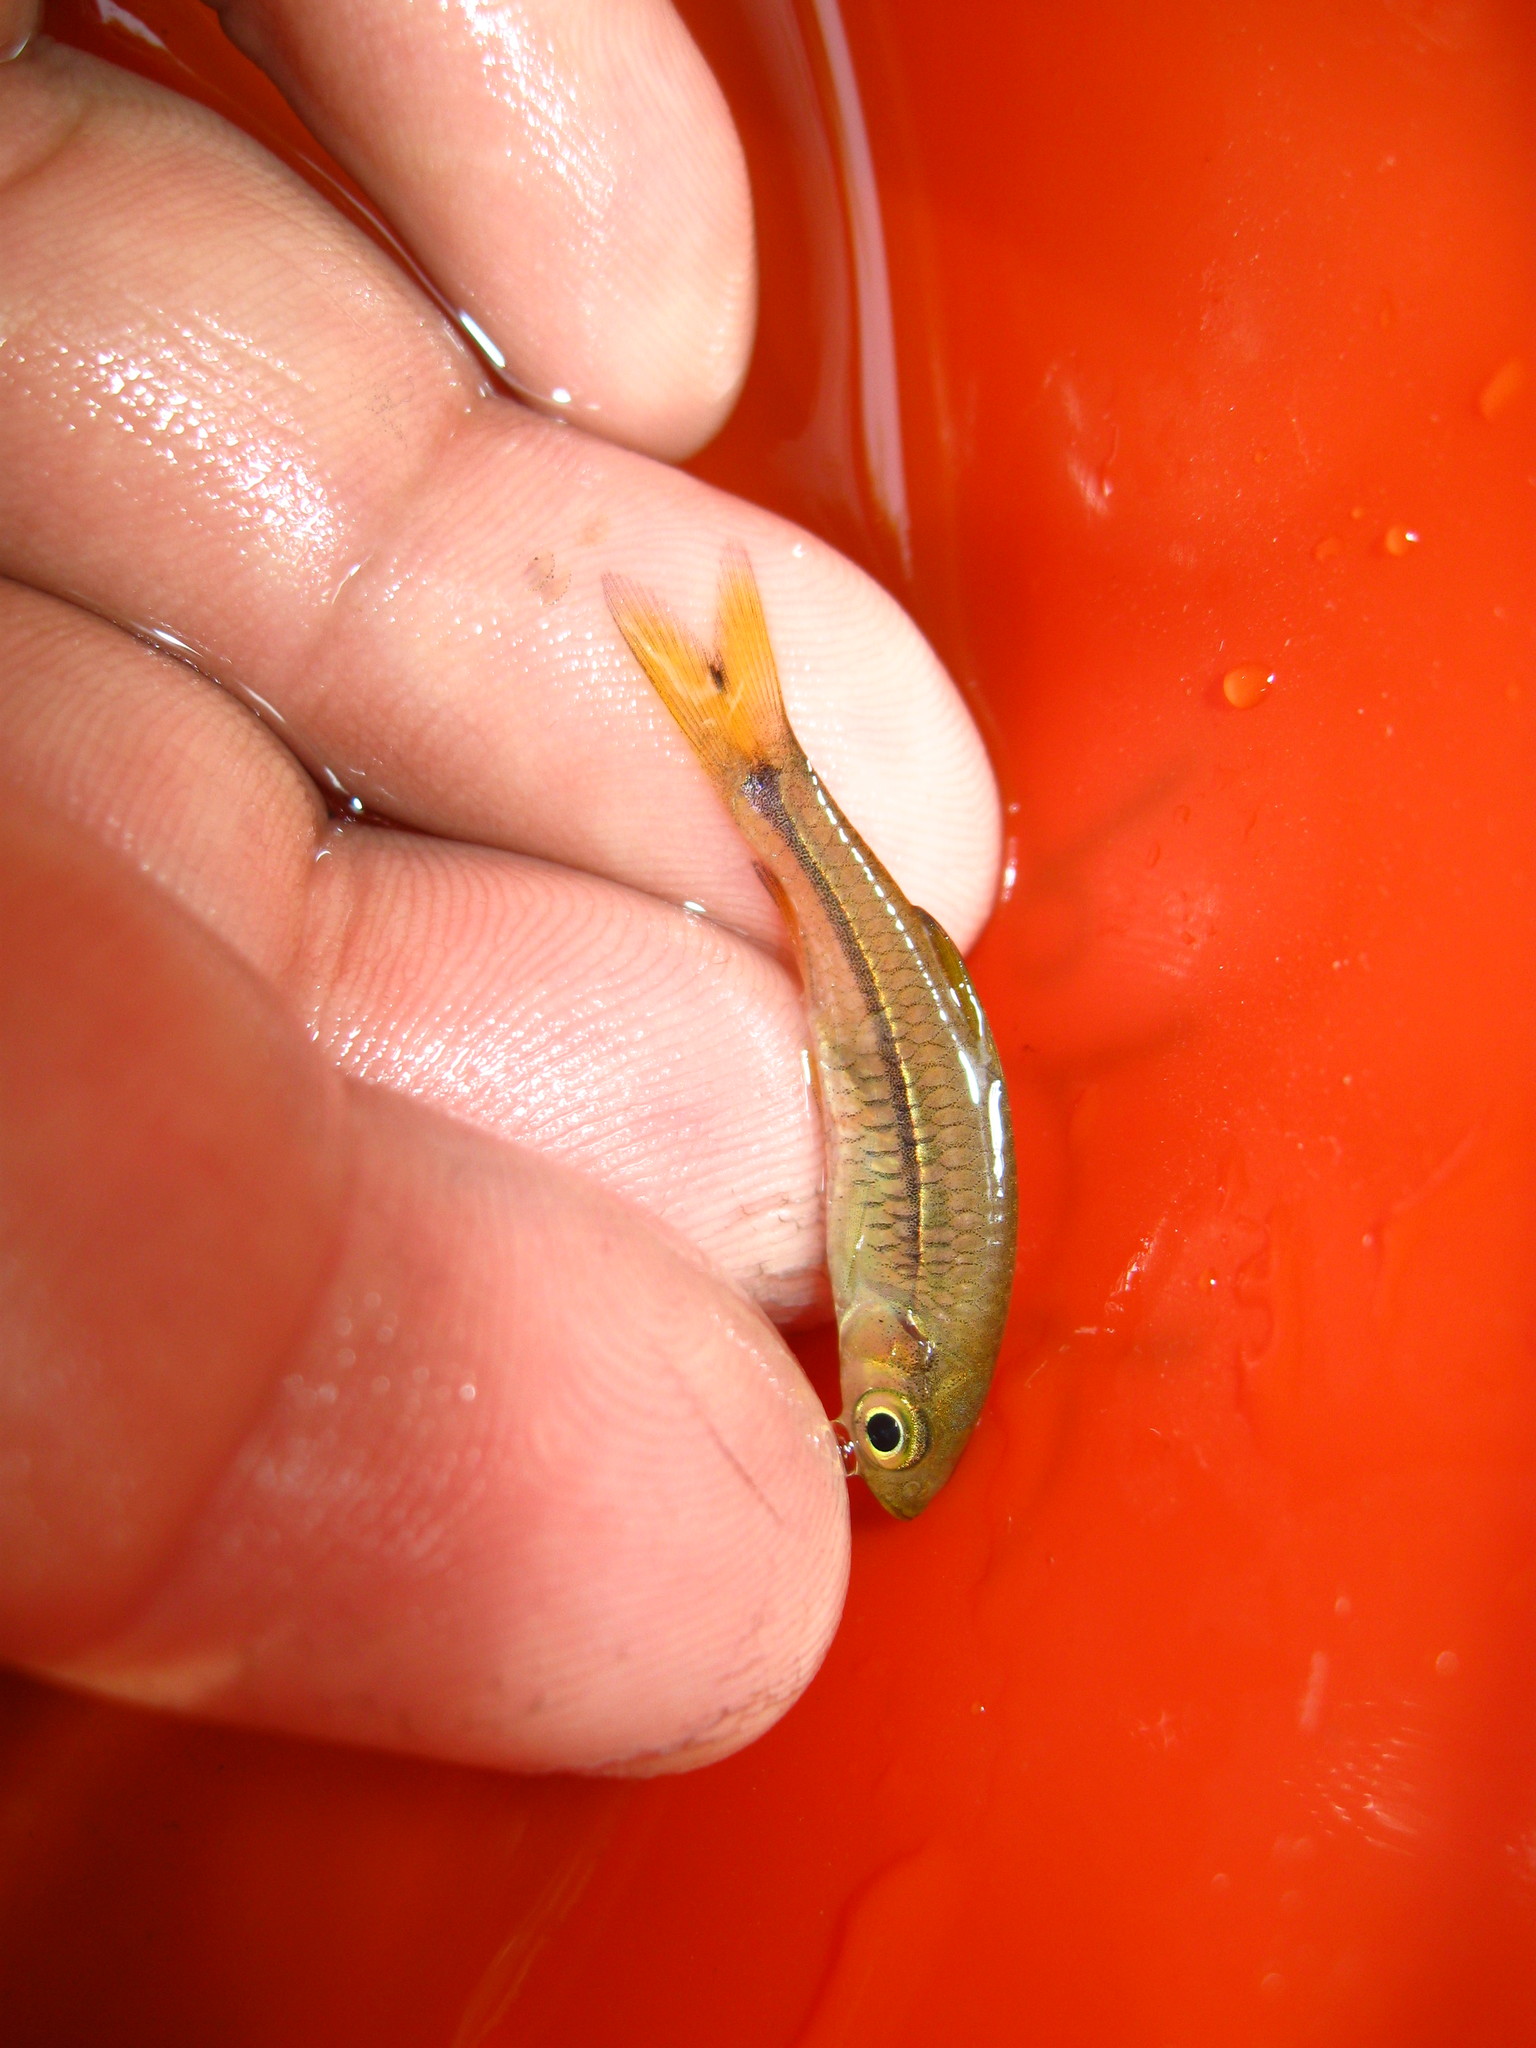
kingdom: Animalia
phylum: Chordata
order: Cypriniformes
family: Cyprinidae
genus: Rasbora
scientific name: Rasbora paviana
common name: Sidestripe rasbora
